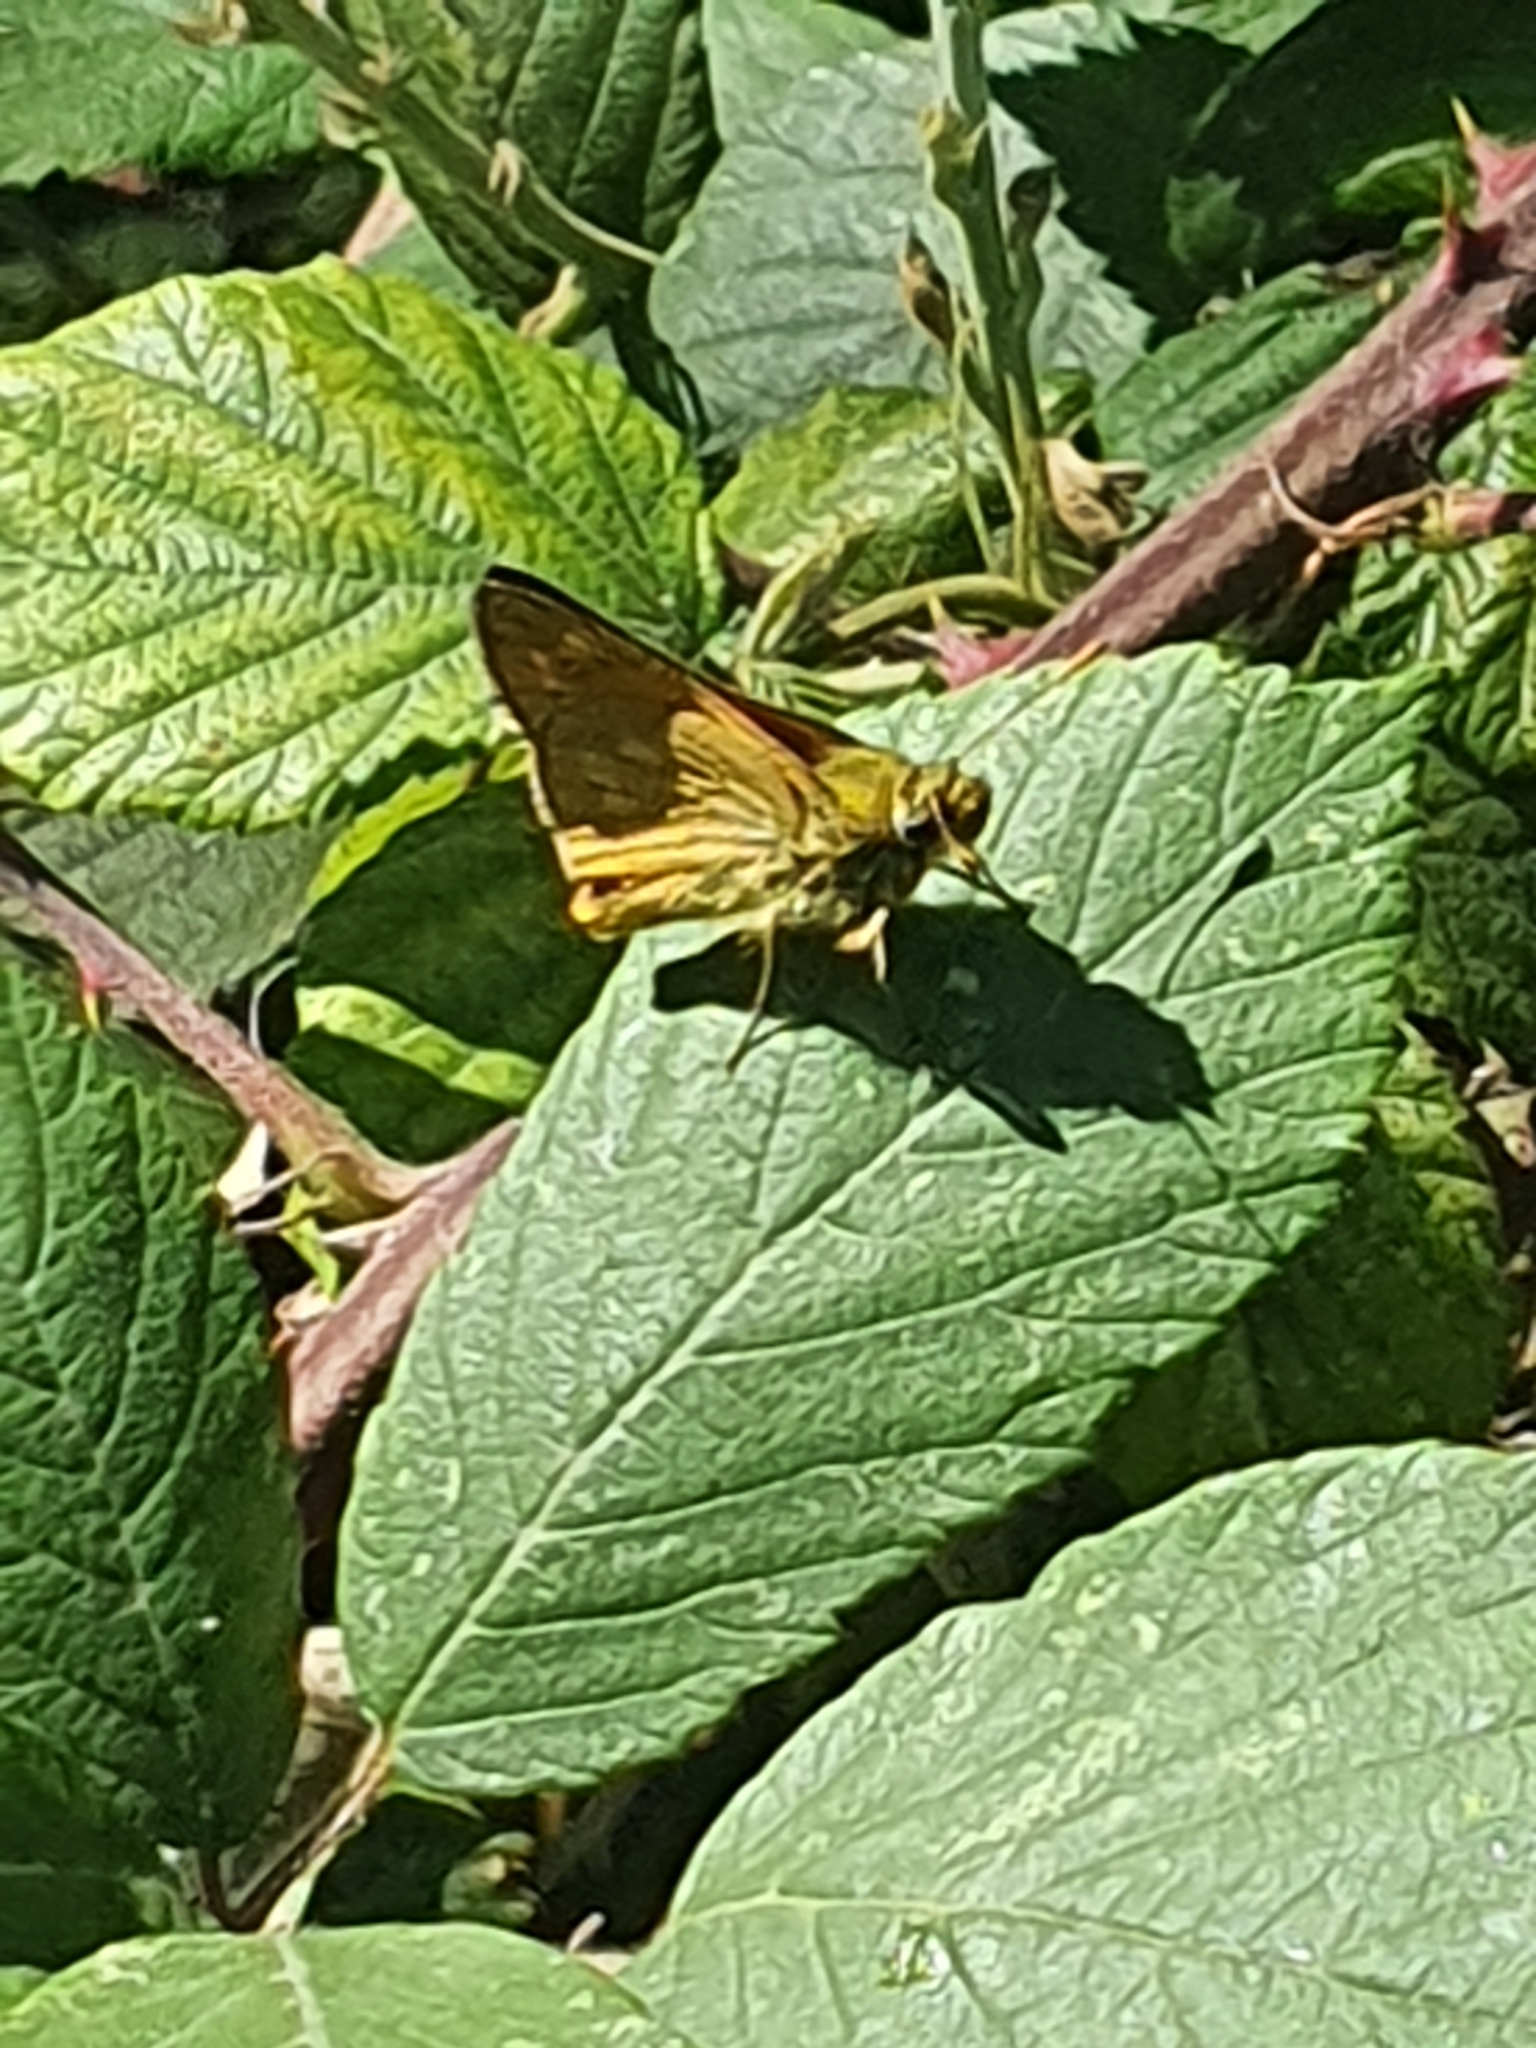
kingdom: Animalia
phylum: Arthropoda
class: Insecta
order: Lepidoptera
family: Hesperiidae
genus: Ochlodes
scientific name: Ochlodes venata
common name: Large skipper
